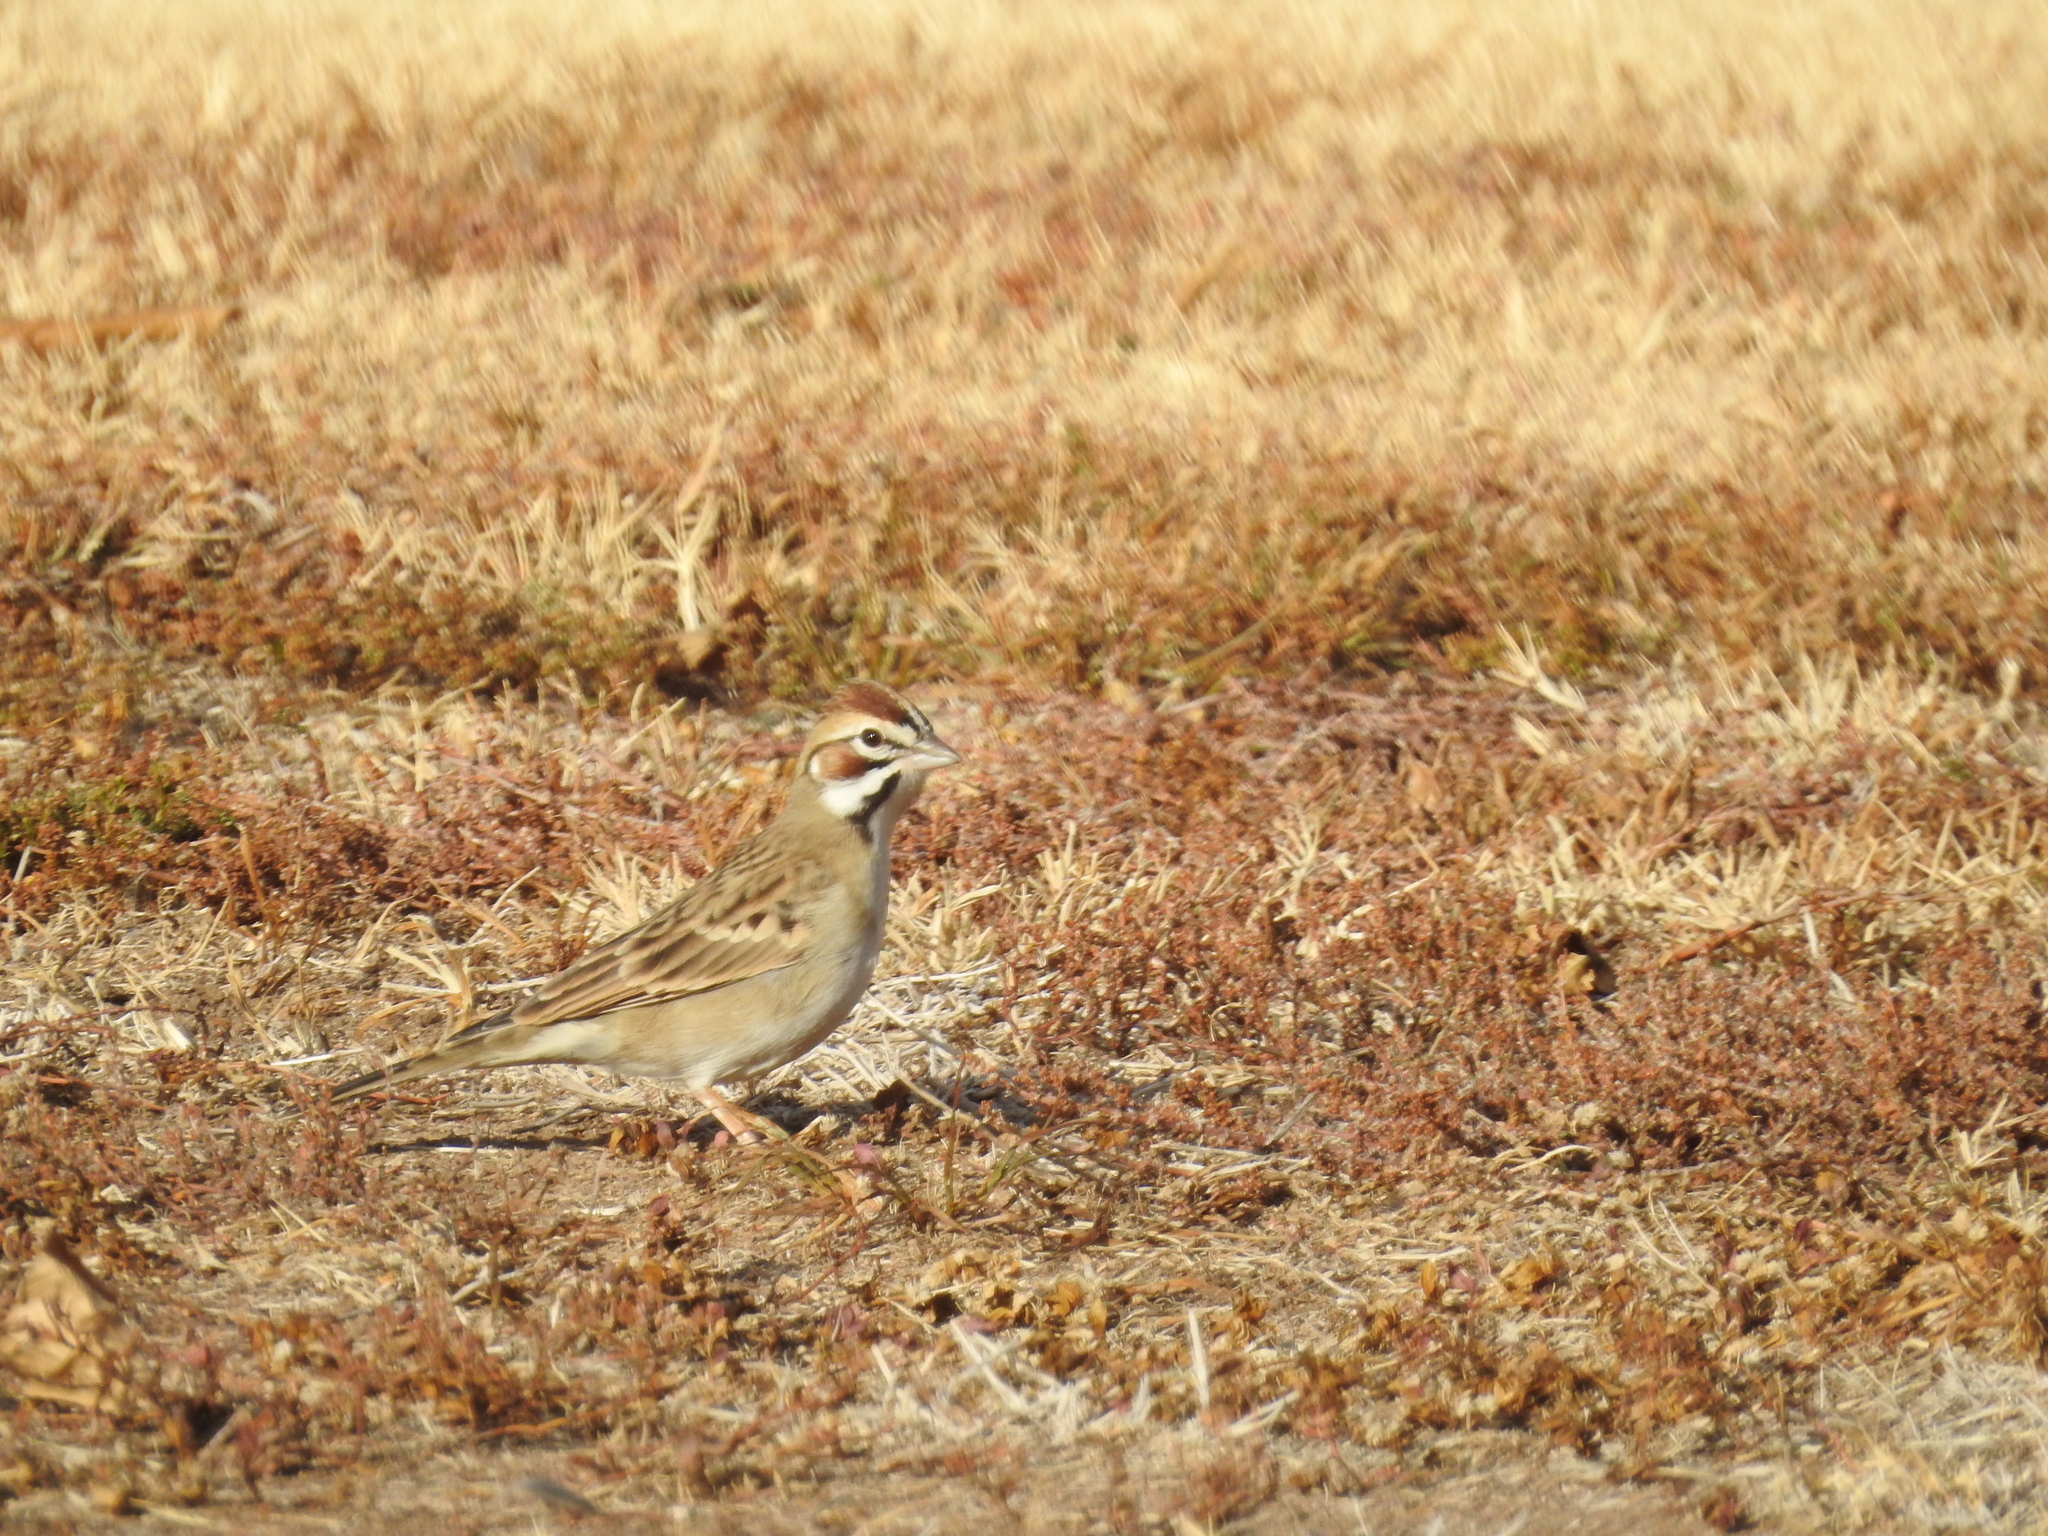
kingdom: Animalia
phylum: Chordata
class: Aves
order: Passeriformes
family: Passerellidae
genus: Chondestes
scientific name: Chondestes grammacus
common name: Lark sparrow
